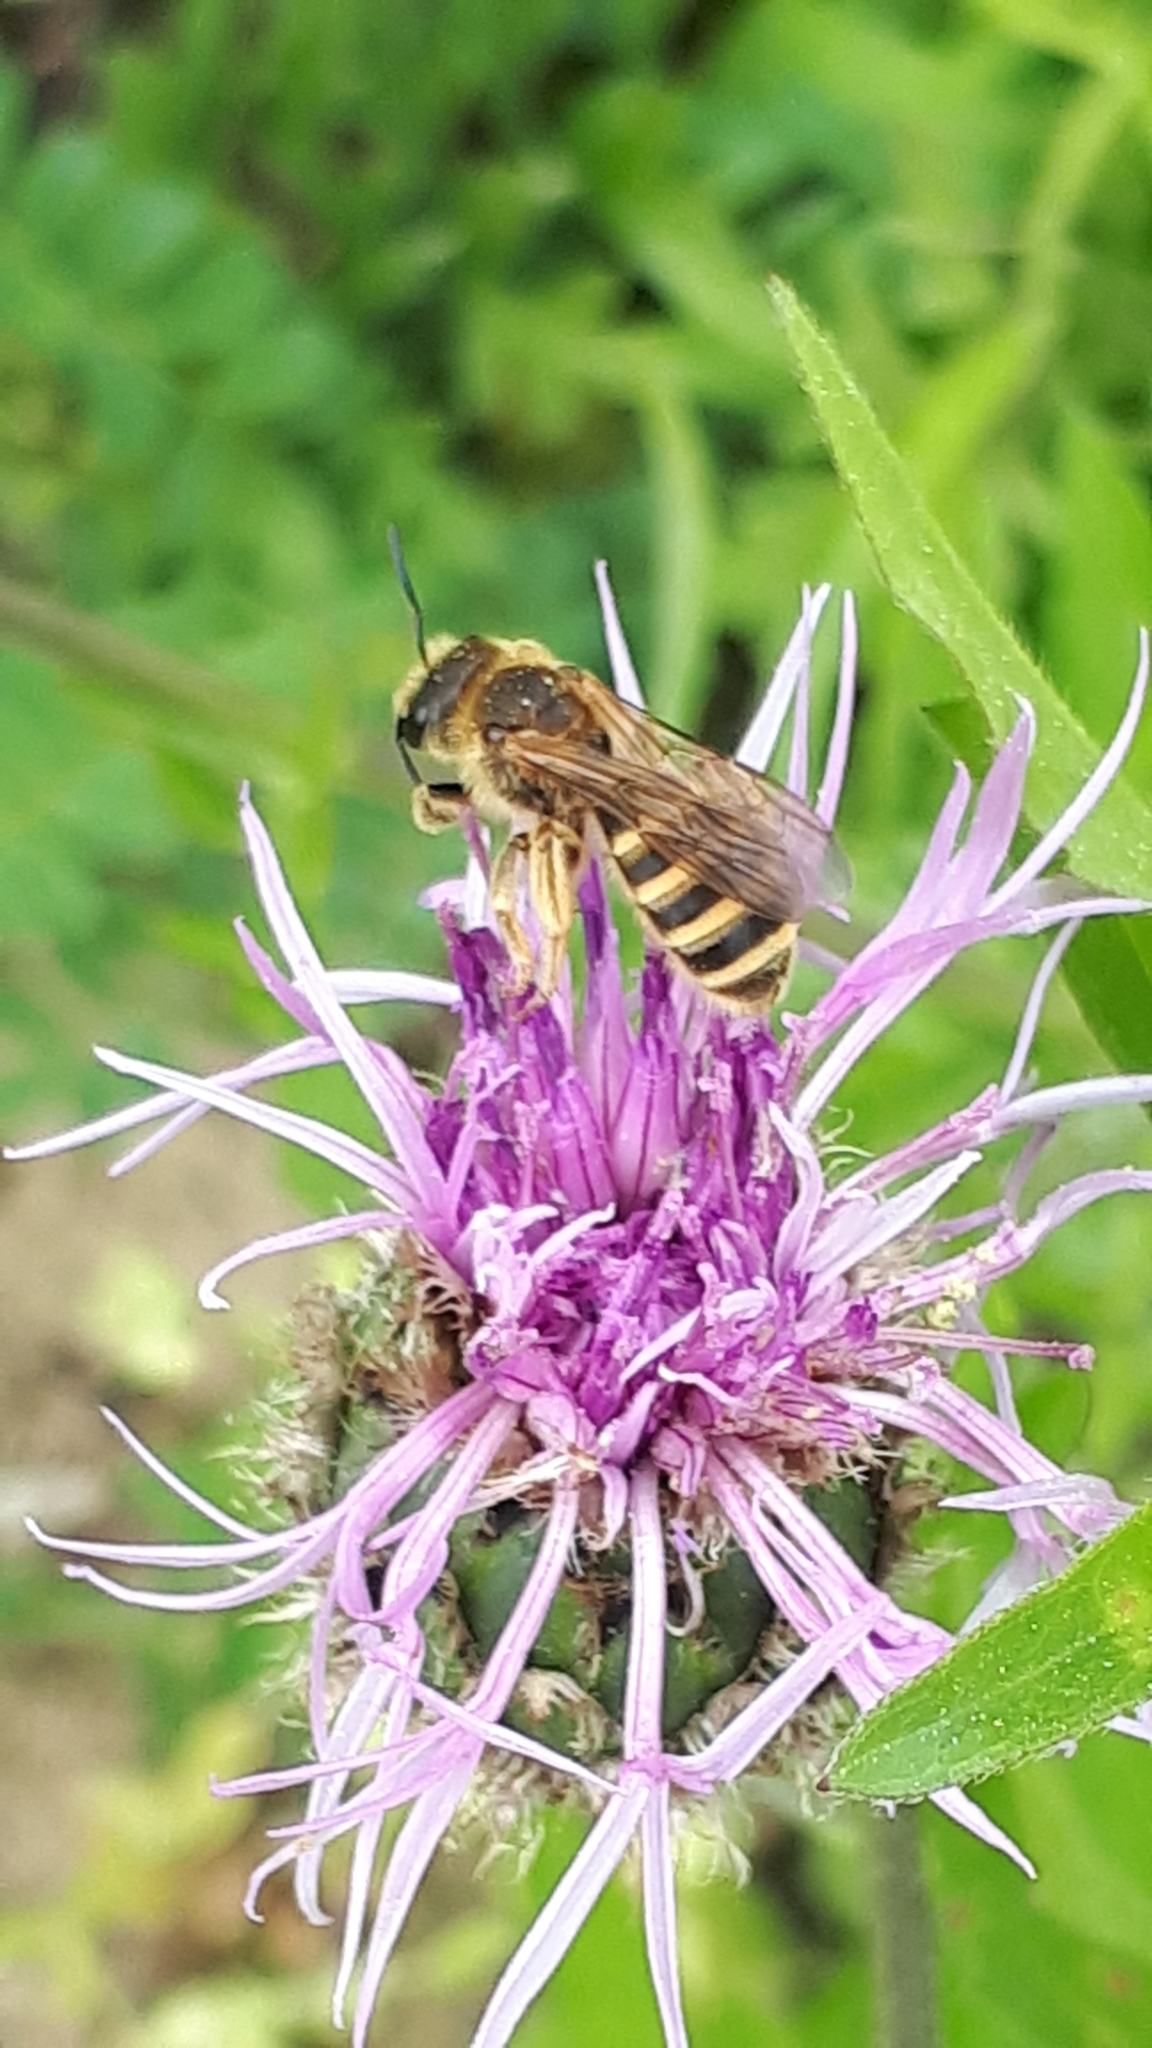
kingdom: Animalia
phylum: Arthropoda
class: Insecta
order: Hymenoptera
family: Halictidae
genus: Halictus
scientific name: Halictus scabiosae
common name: Great banded furrow bee
